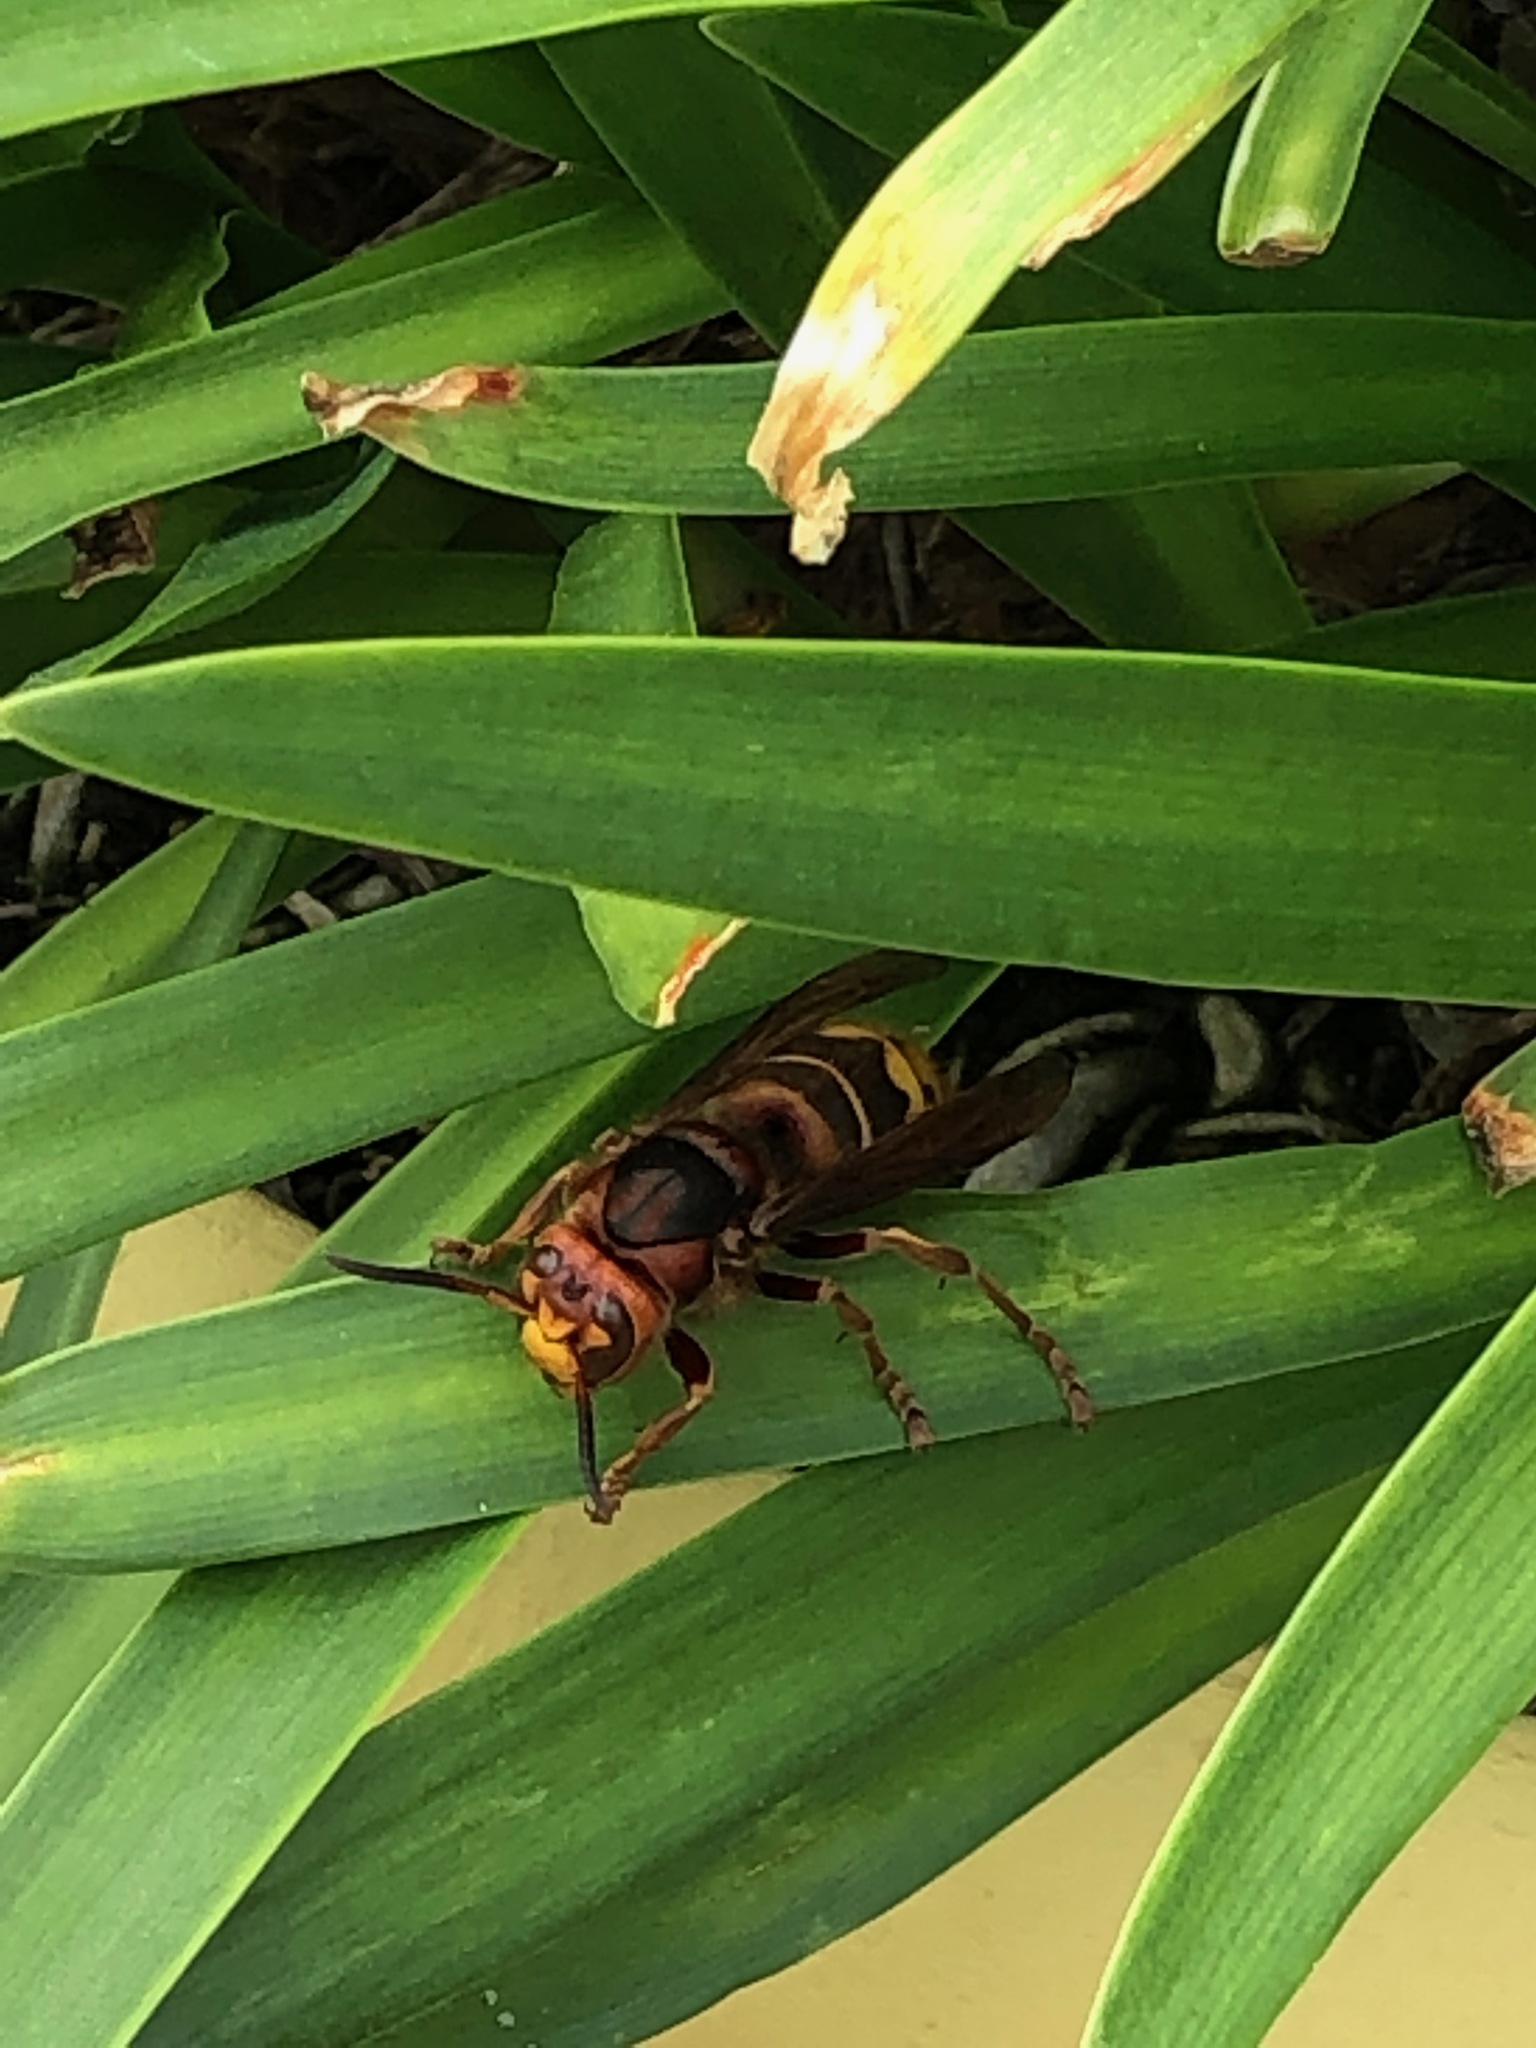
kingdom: Animalia
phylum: Arthropoda
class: Insecta
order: Hymenoptera
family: Vespidae
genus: Vespa
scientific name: Vespa crabro
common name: Hornet
